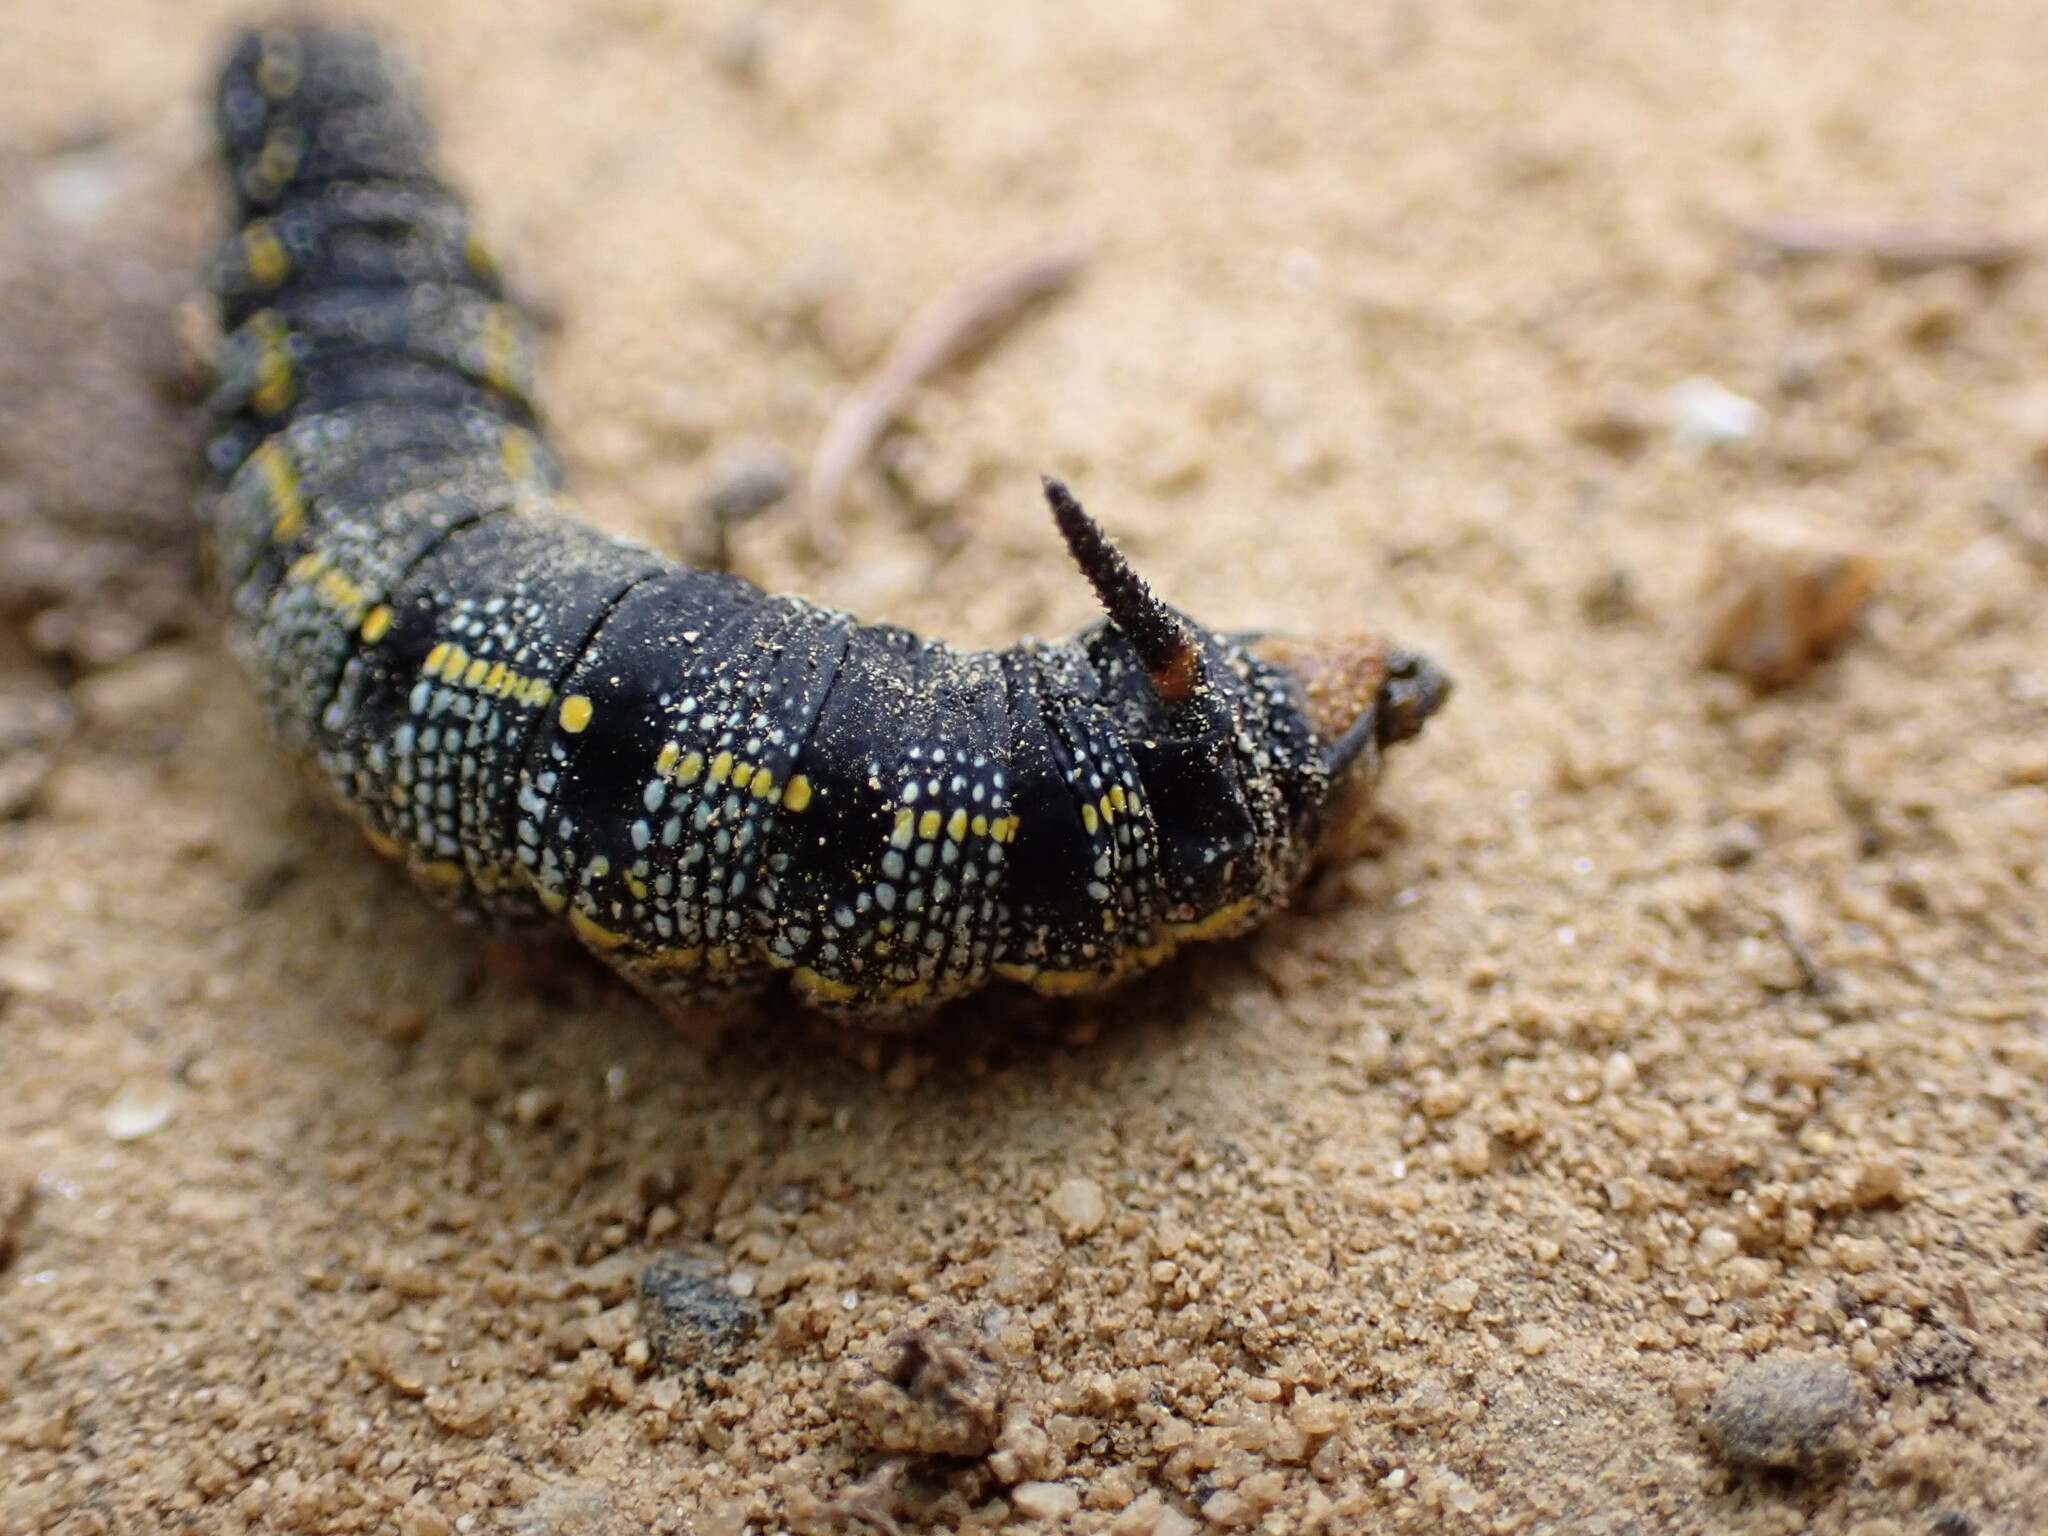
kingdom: Animalia
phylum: Arthropoda
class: Insecta
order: Lepidoptera
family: Sphingidae
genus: Hyles
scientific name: Hyles lineata
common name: White-lined sphinx
